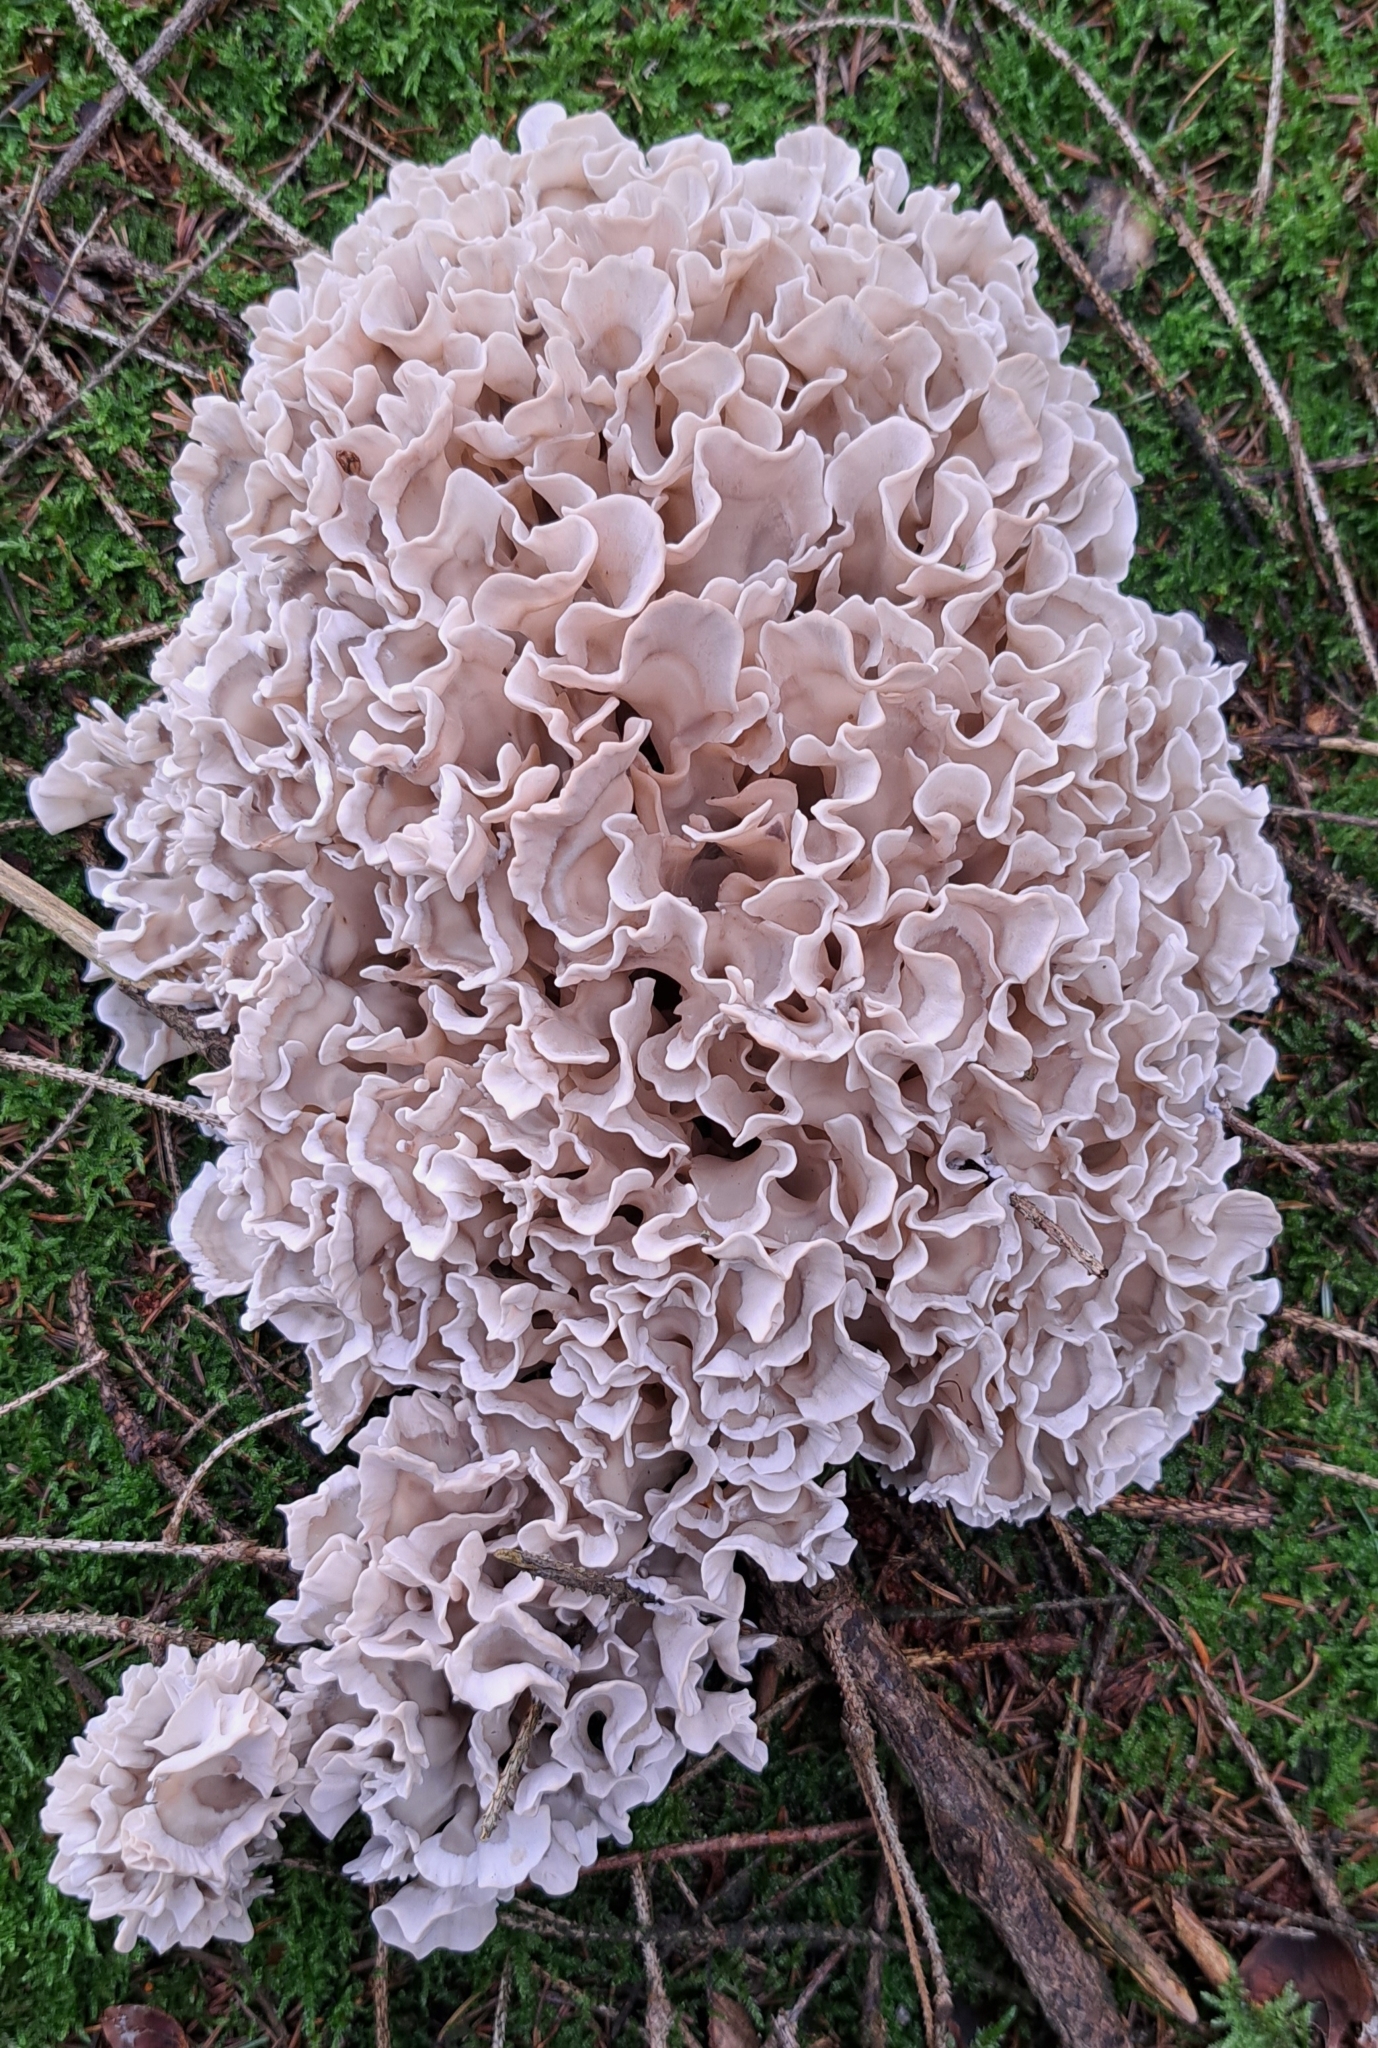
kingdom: Fungi
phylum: Basidiomycota
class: Agaricomycetes
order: Polyporales
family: Sparassidaceae
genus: Sparassis
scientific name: Sparassis brevipes
